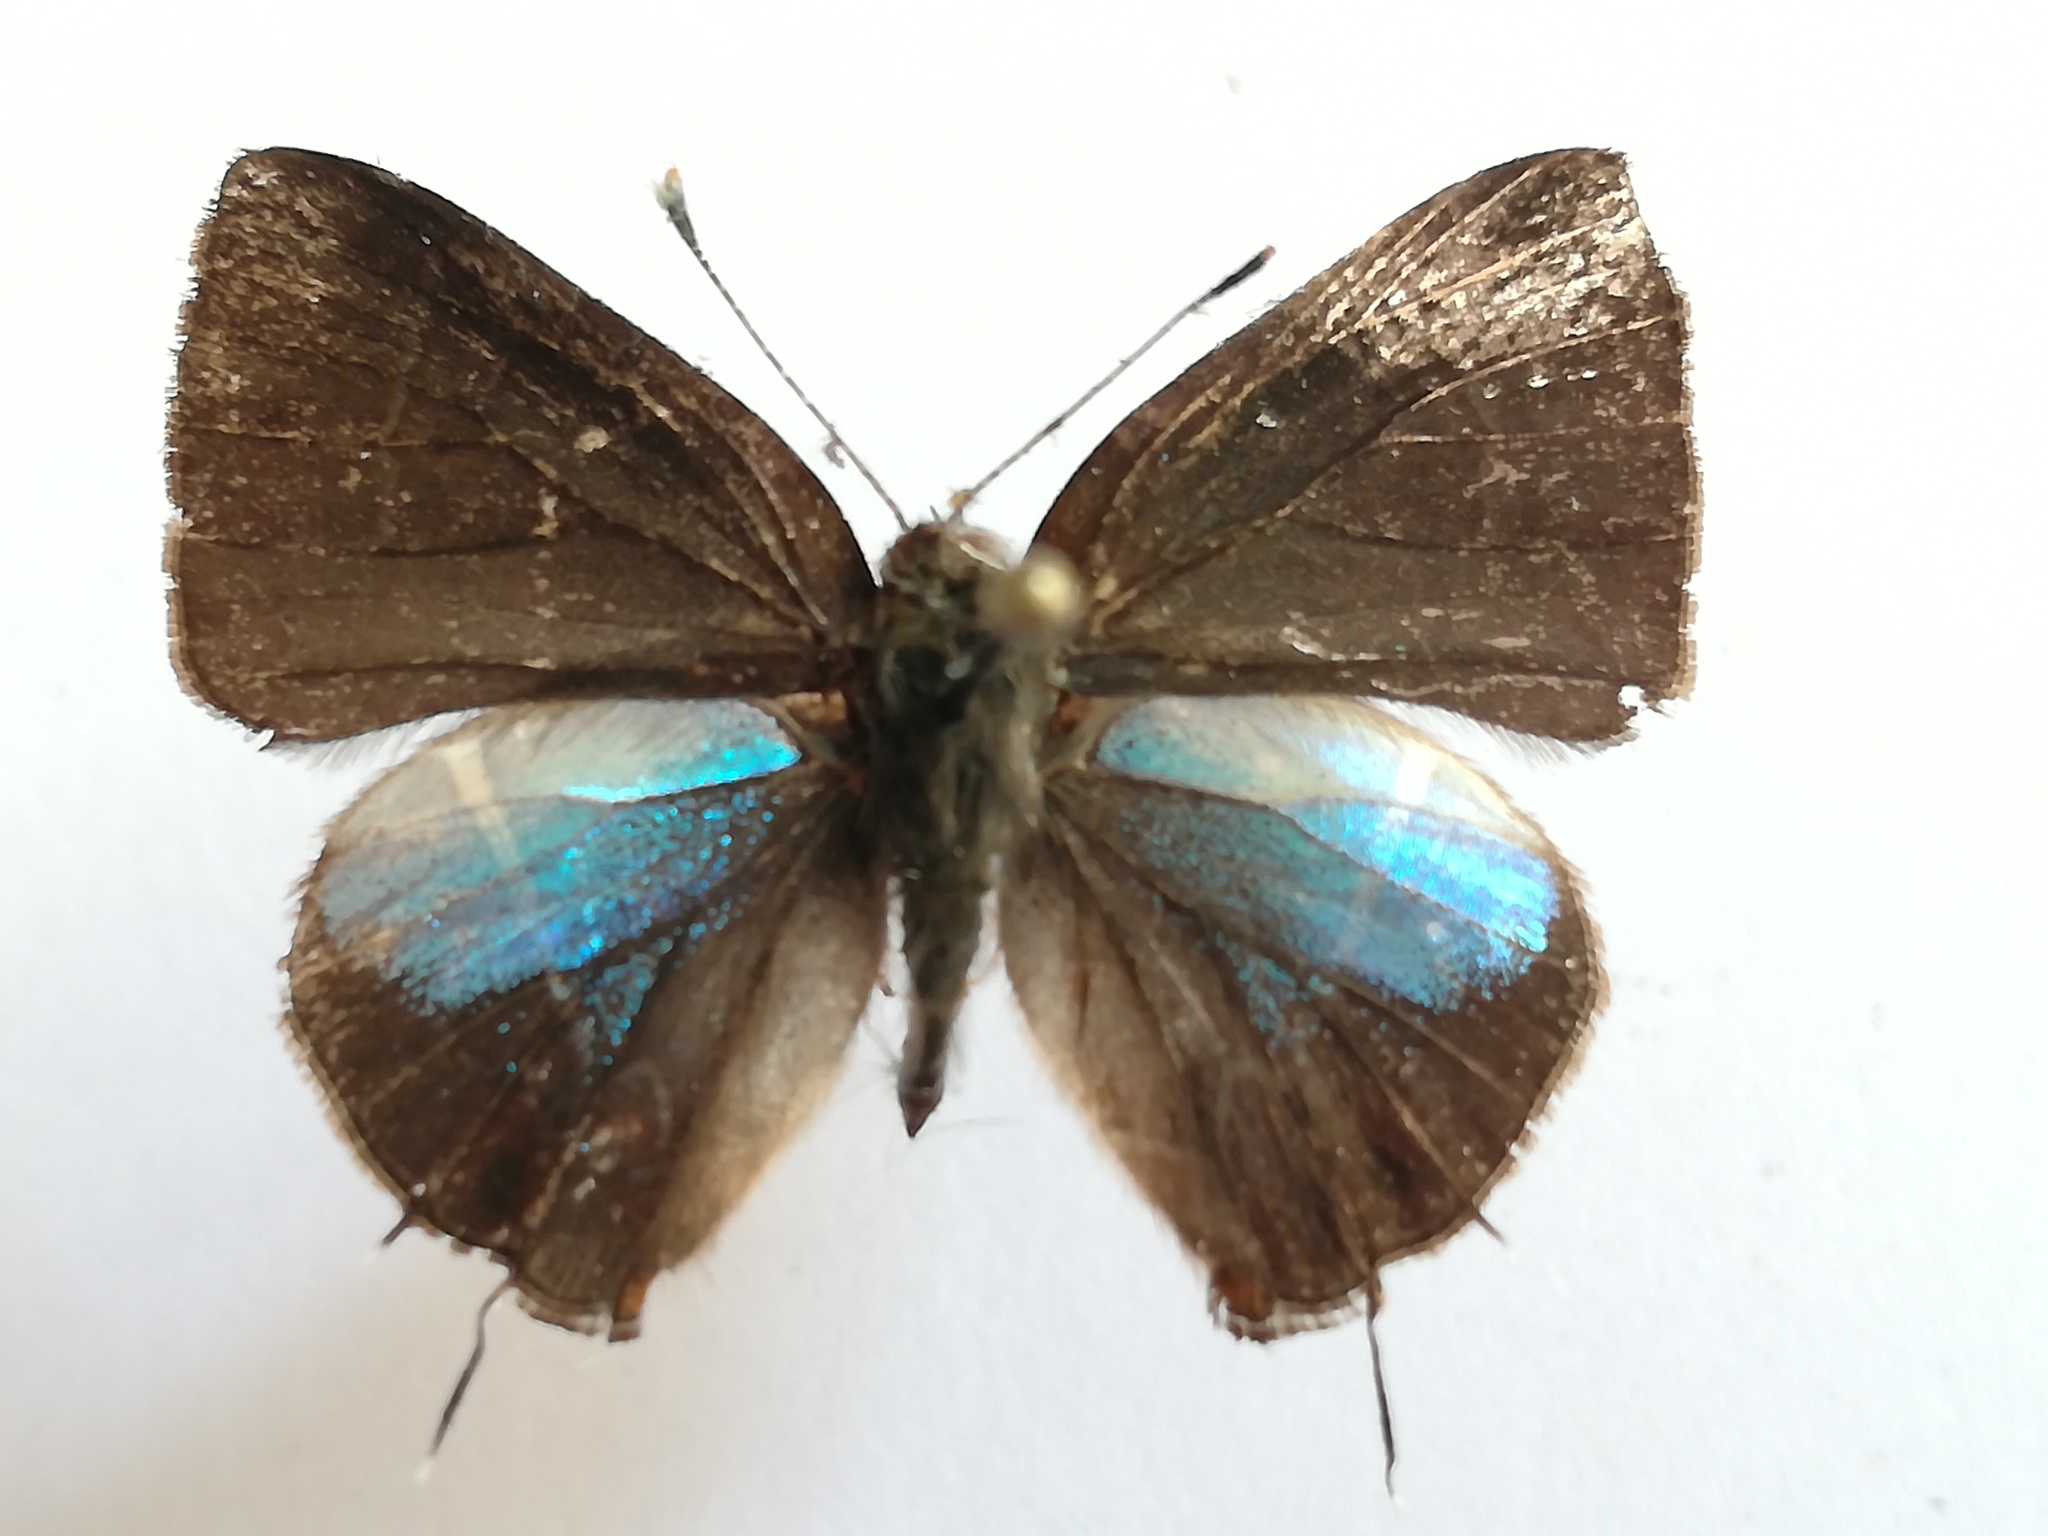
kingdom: Animalia
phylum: Arthropoda
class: Insecta
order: Lepidoptera
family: Lycaenidae
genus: Calycopis
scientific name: Calycopis clarina
